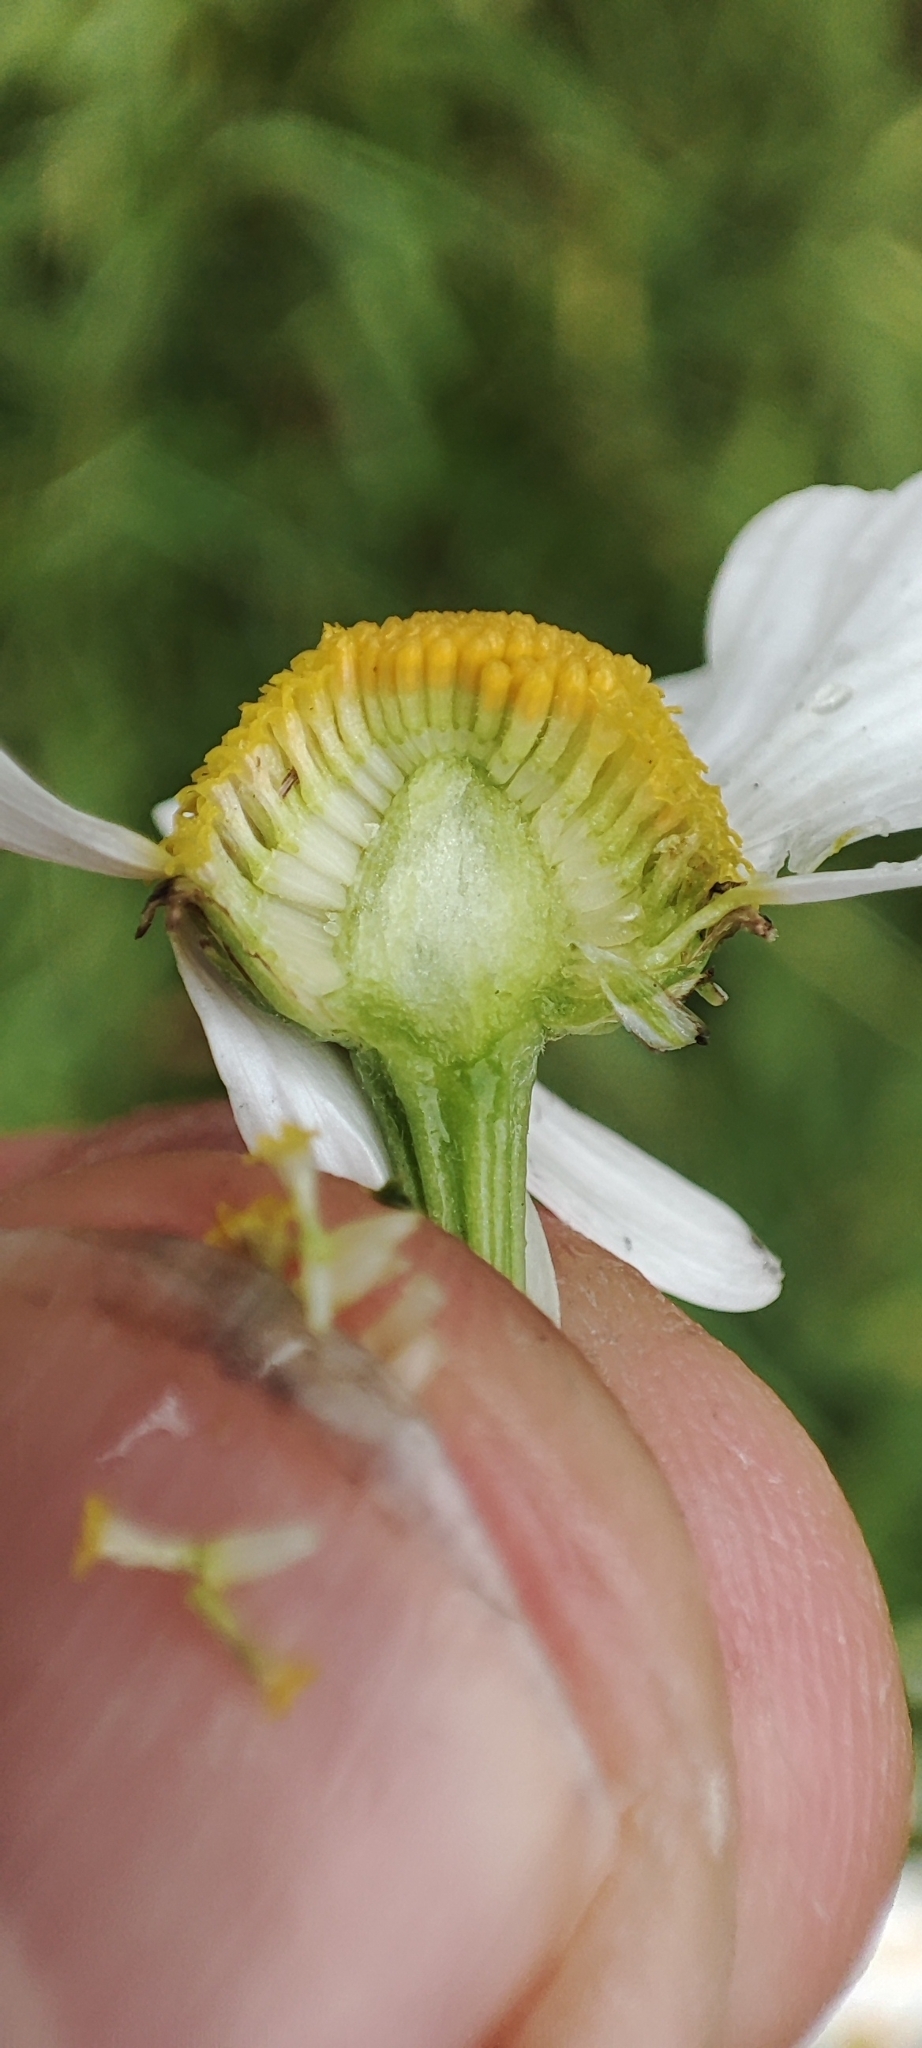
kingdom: Plantae
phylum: Tracheophyta
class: Magnoliopsida
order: Asterales
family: Asteraceae
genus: Tripleurospermum
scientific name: Tripleurospermum inodorum
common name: Scentless mayweed
